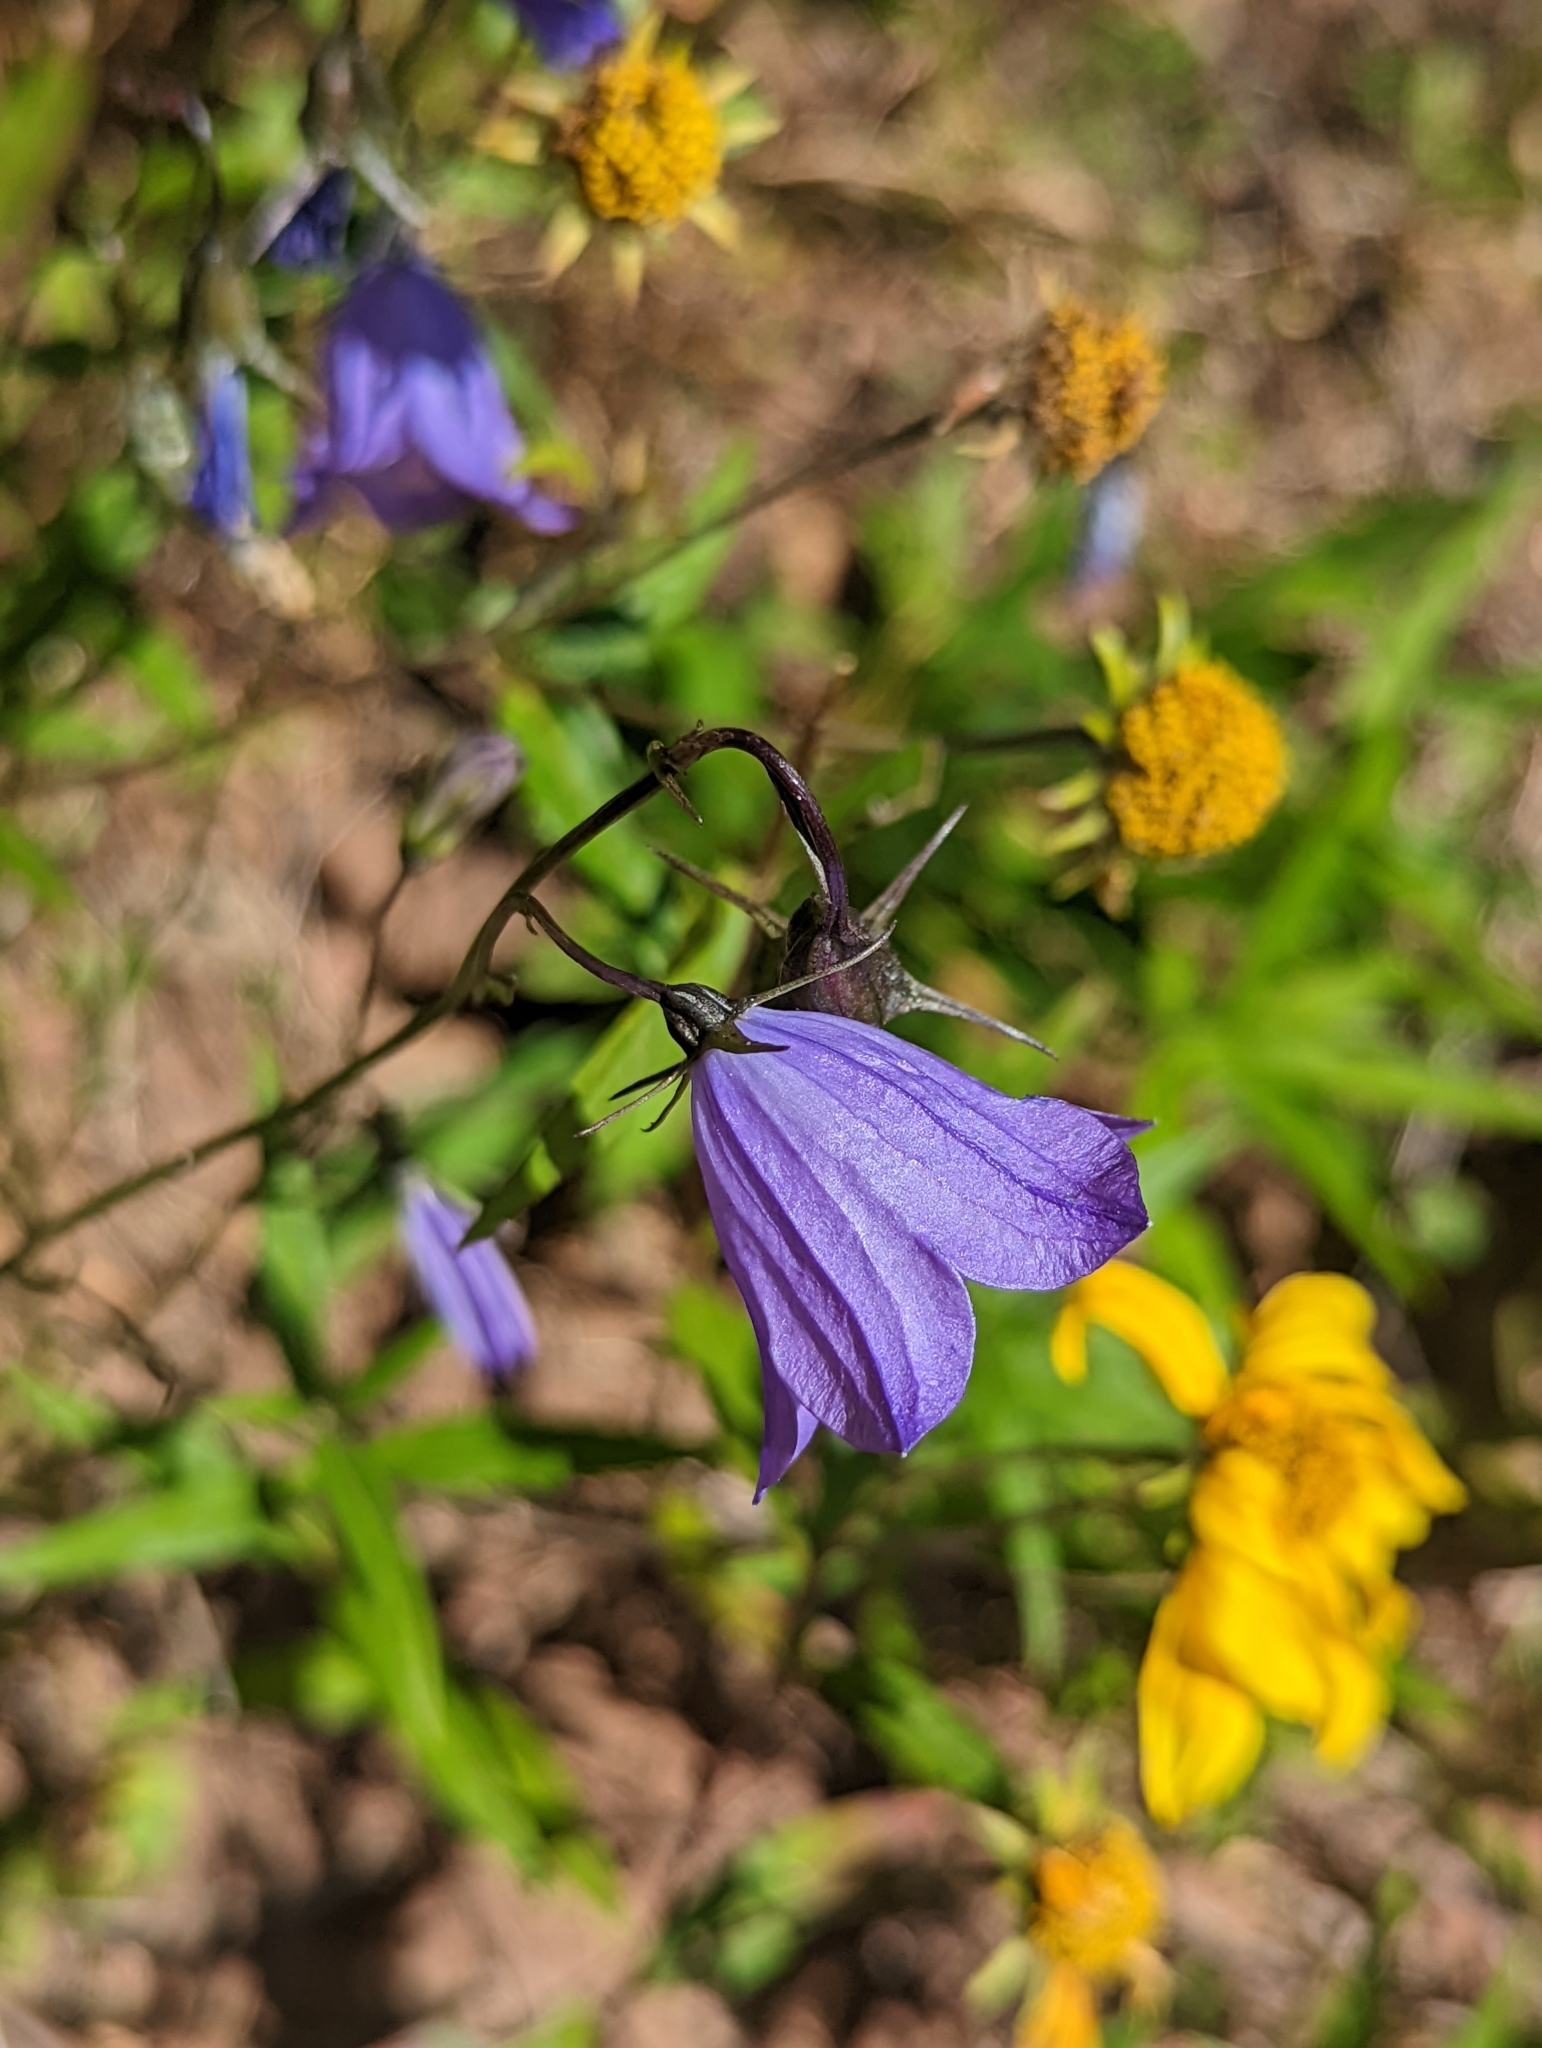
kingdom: Plantae
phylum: Tracheophyta
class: Magnoliopsida
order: Asterales
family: Campanulaceae
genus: Campanula
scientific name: Campanula petiolata
